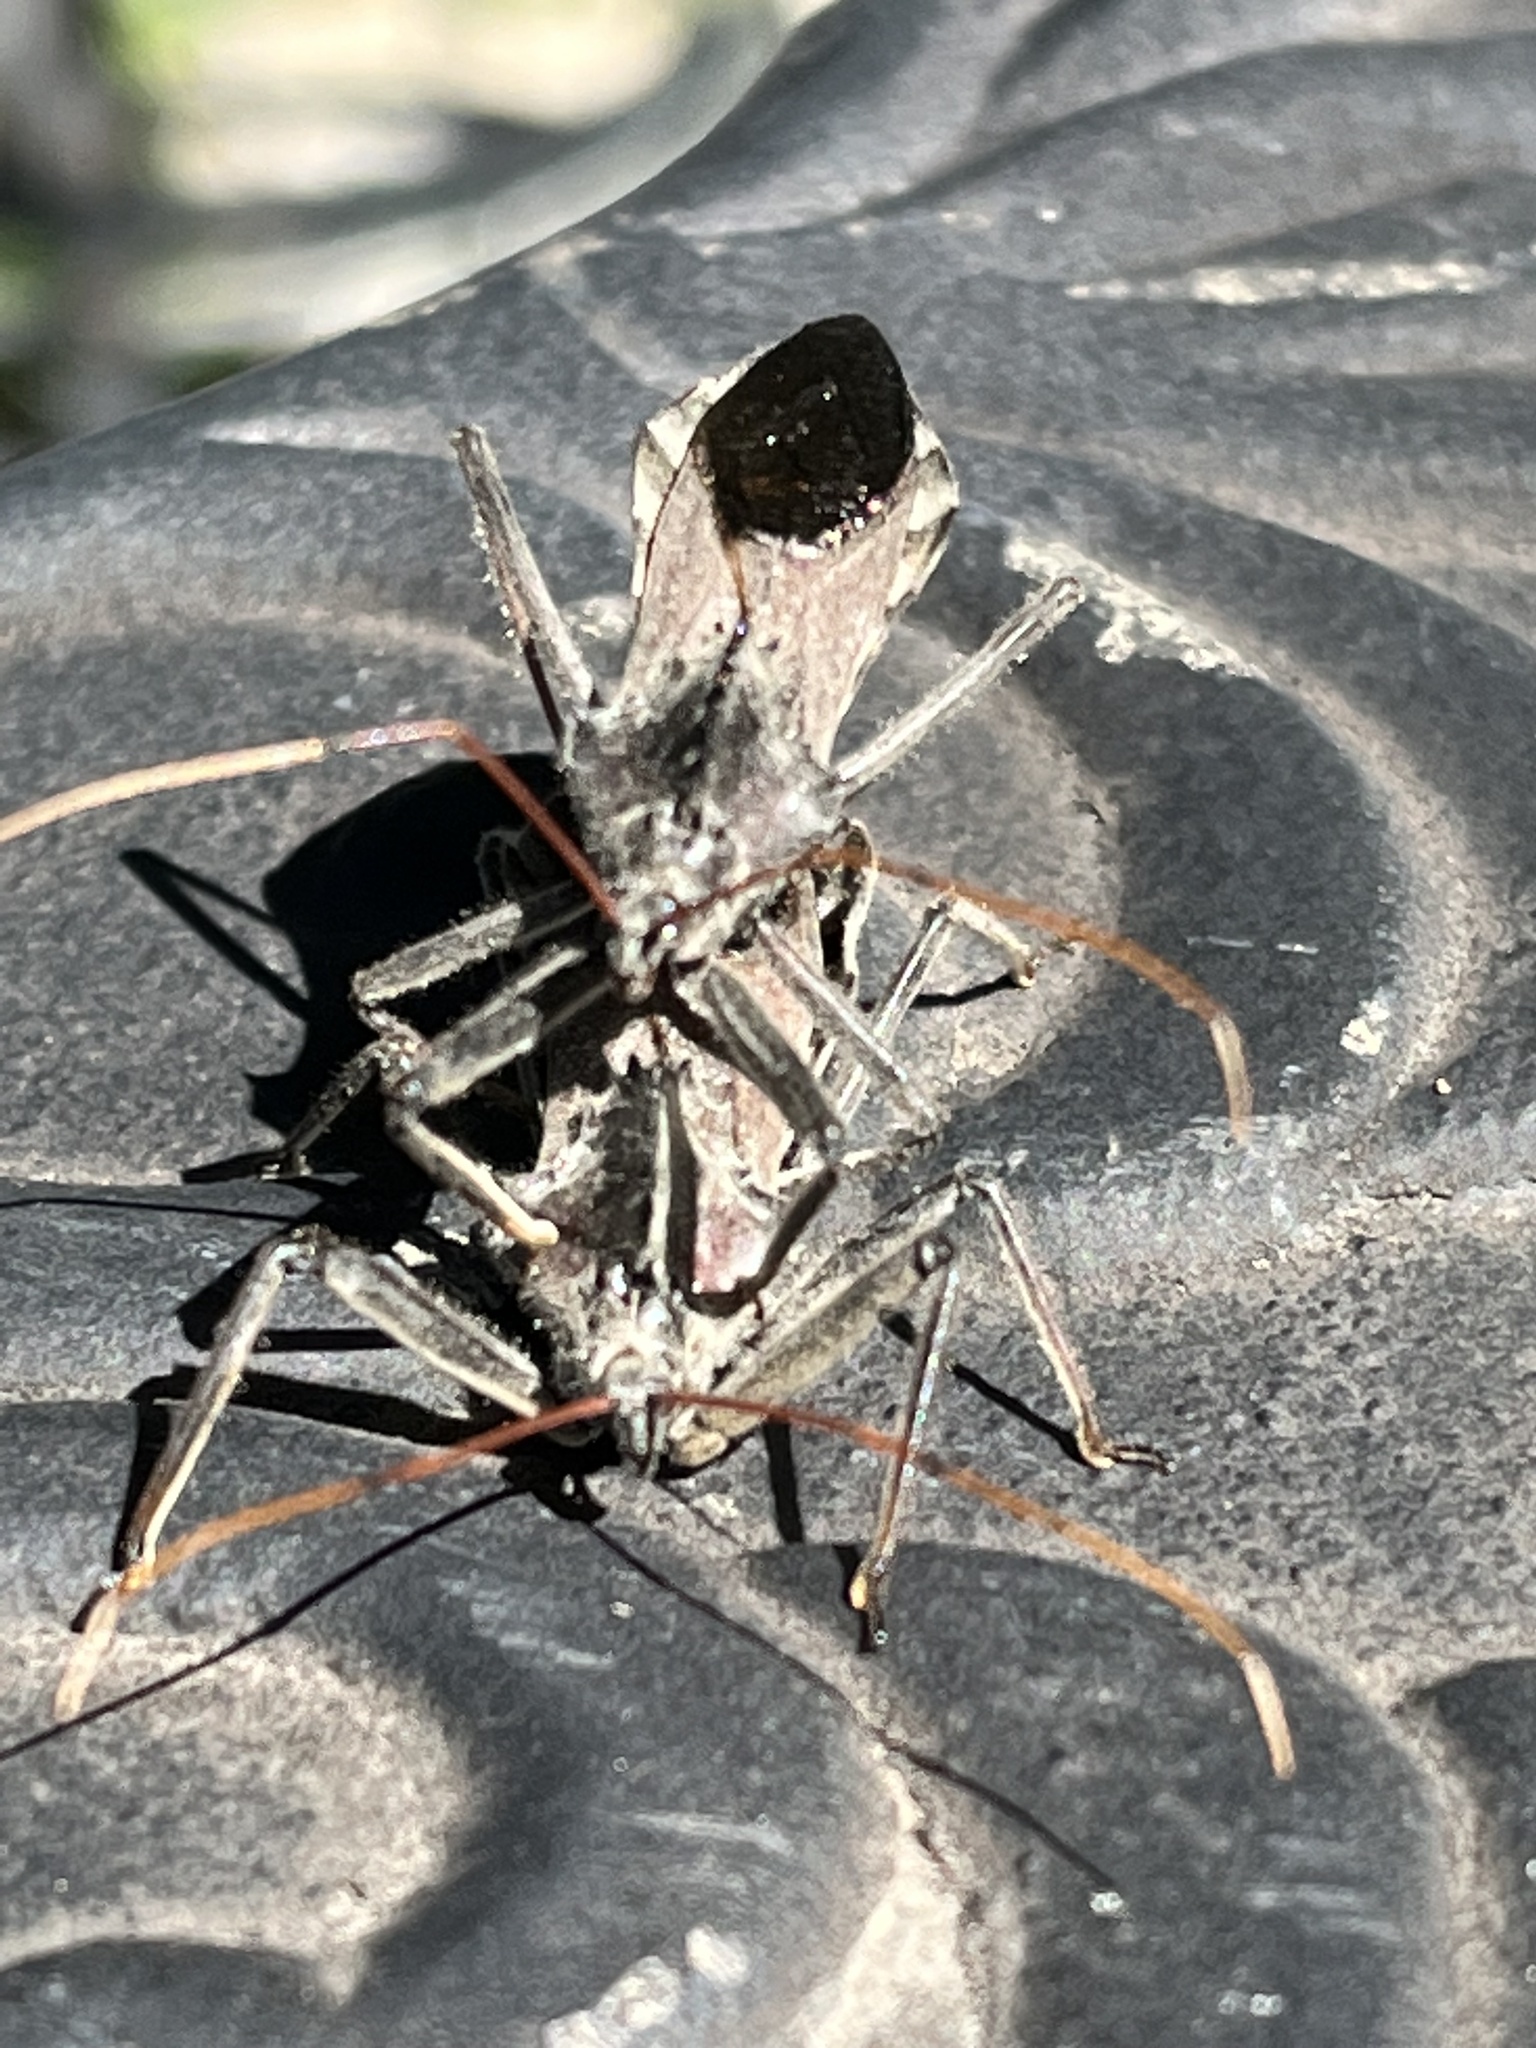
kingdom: Animalia
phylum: Arthropoda
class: Insecta
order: Hemiptera
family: Reduviidae
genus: Arilus
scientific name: Arilus cristatus
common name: North american wheel bug
